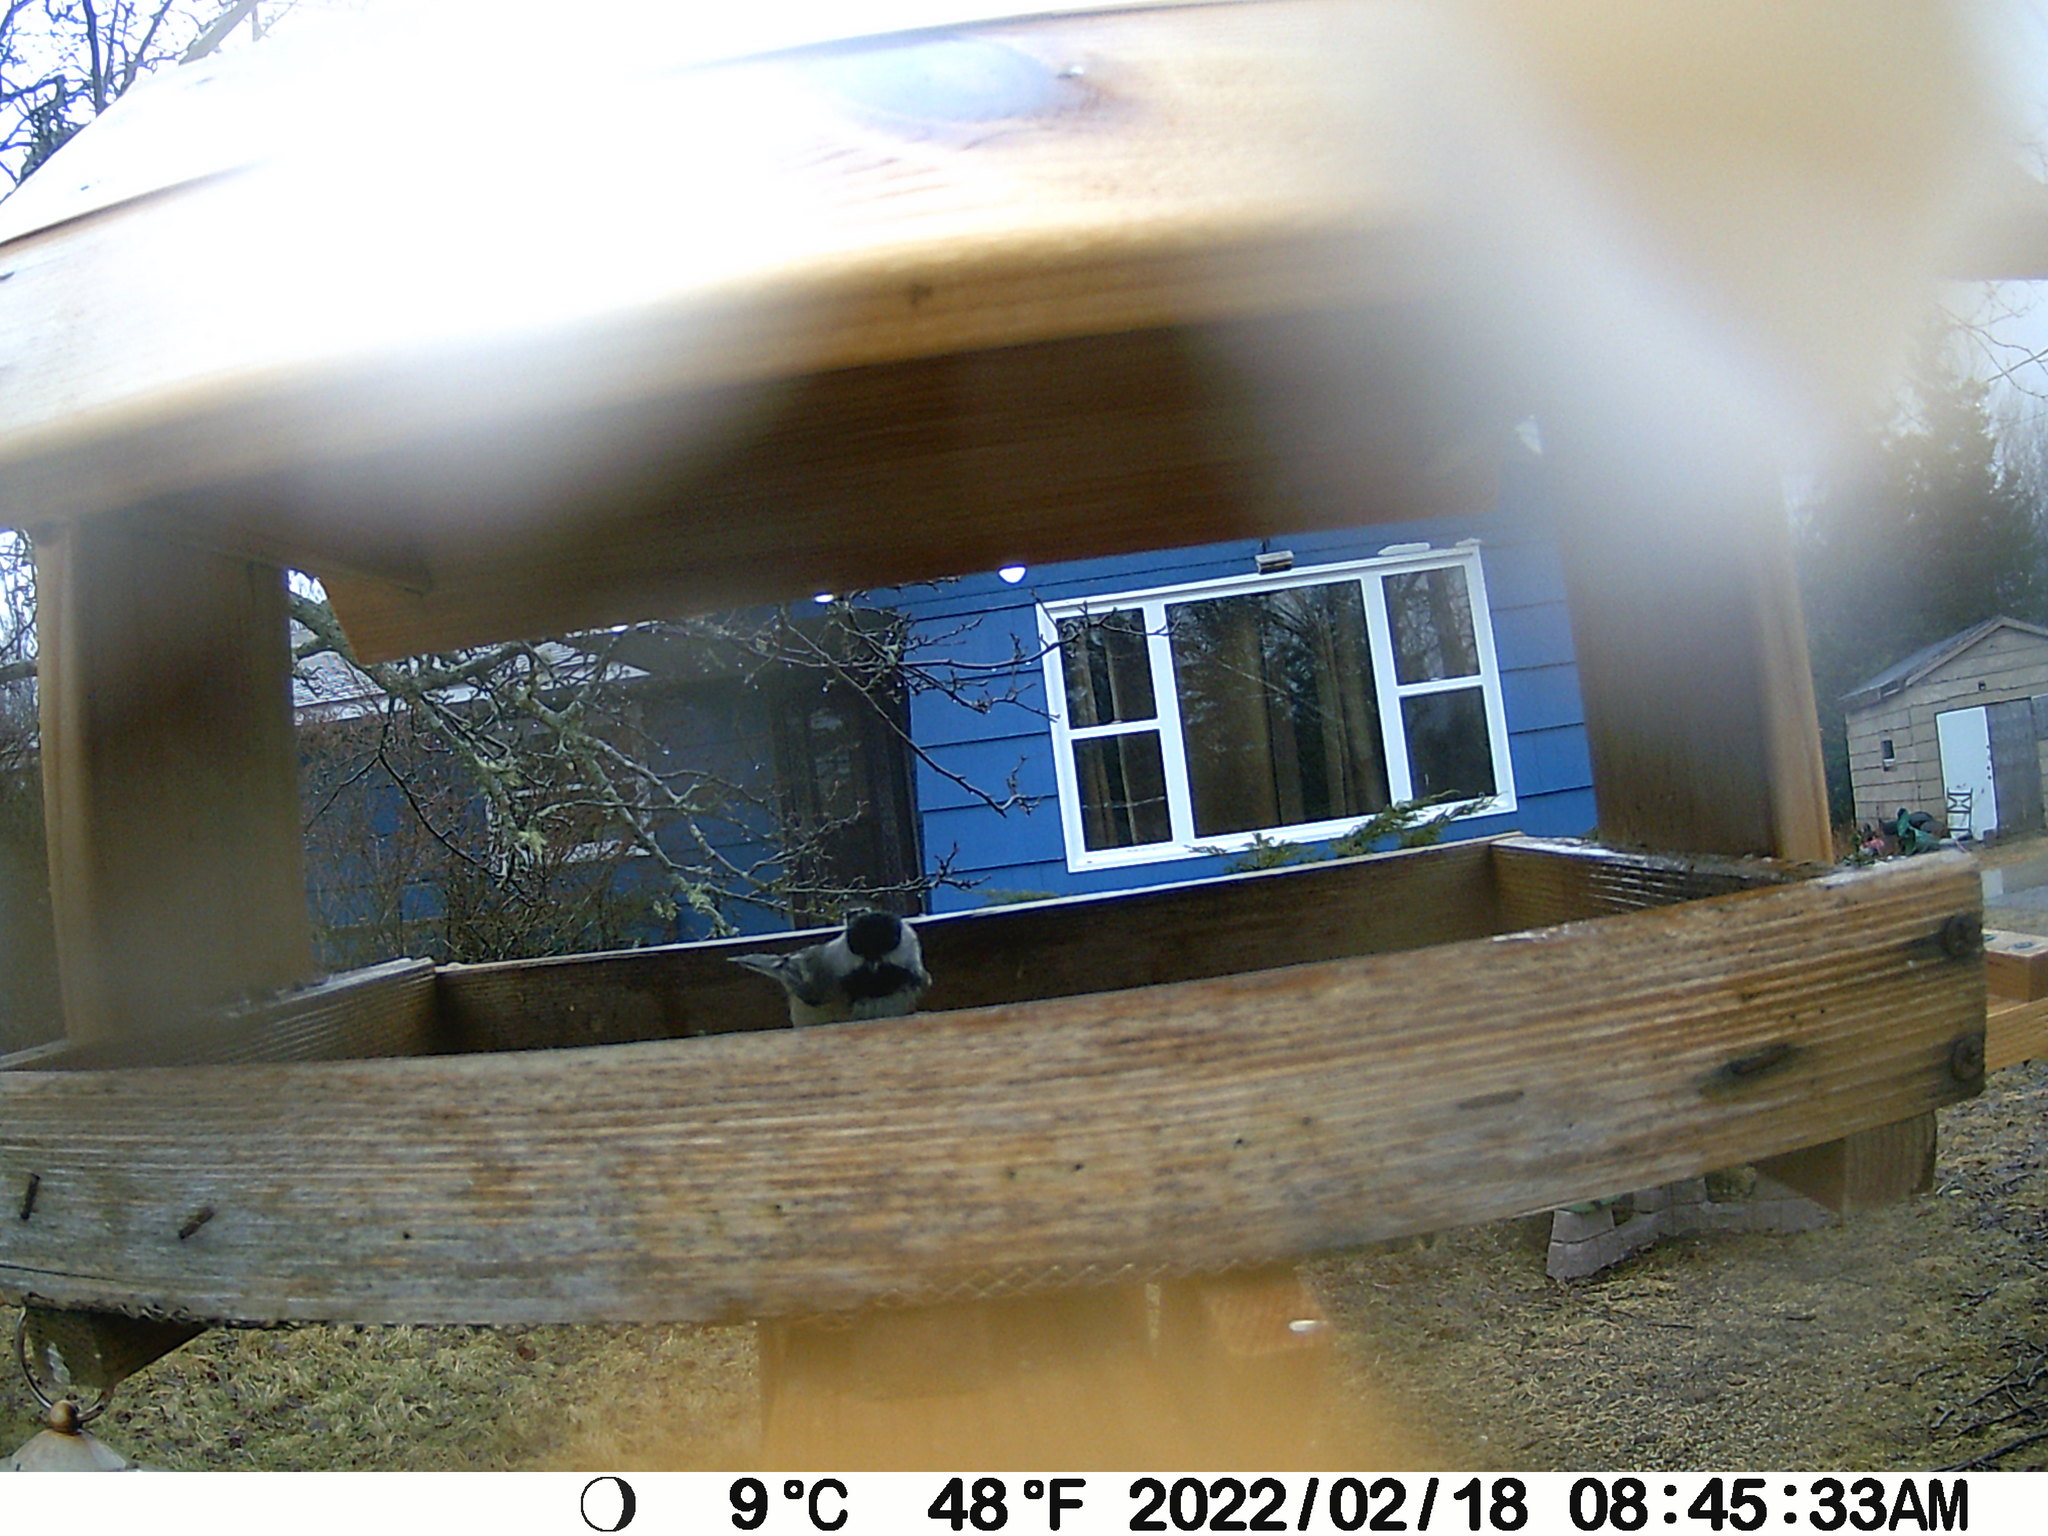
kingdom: Animalia
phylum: Chordata
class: Aves
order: Passeriformes
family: Paridae
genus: Poecile
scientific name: Poecile atricapillus
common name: Black-capped chickadee
